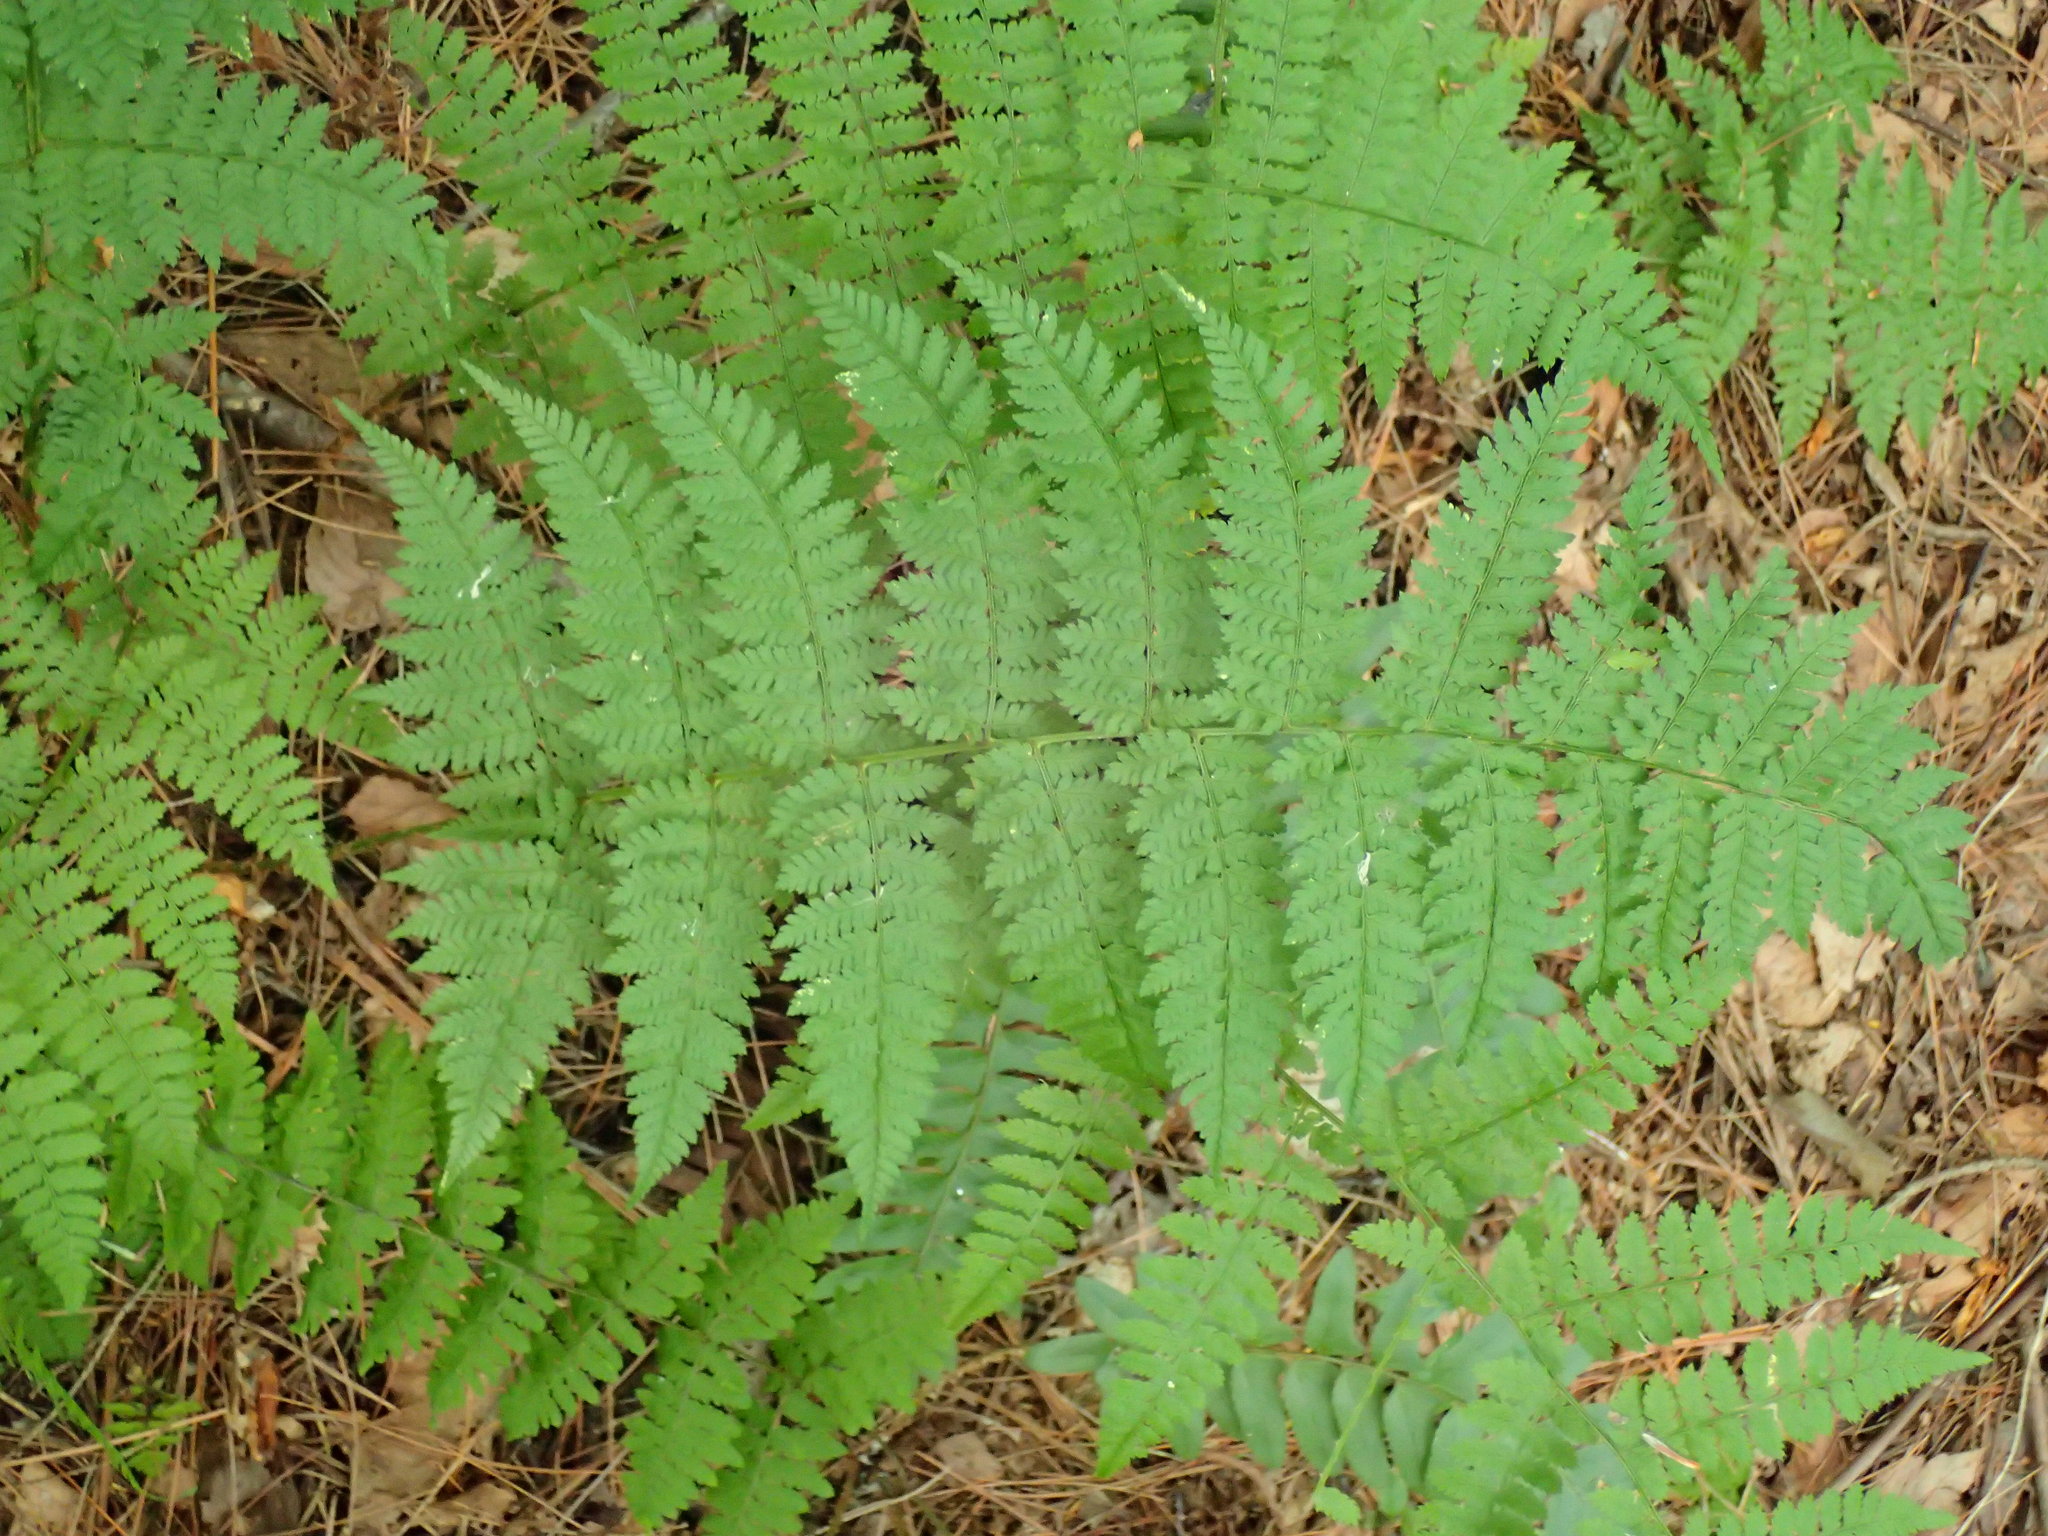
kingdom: Plantae
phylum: Tracheophyta
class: Polypodiopsida
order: Polypodiales
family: Dryopteridaceae
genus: Dryopteris
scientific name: Dryopteris intermedia
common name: Evergreen wood fern
